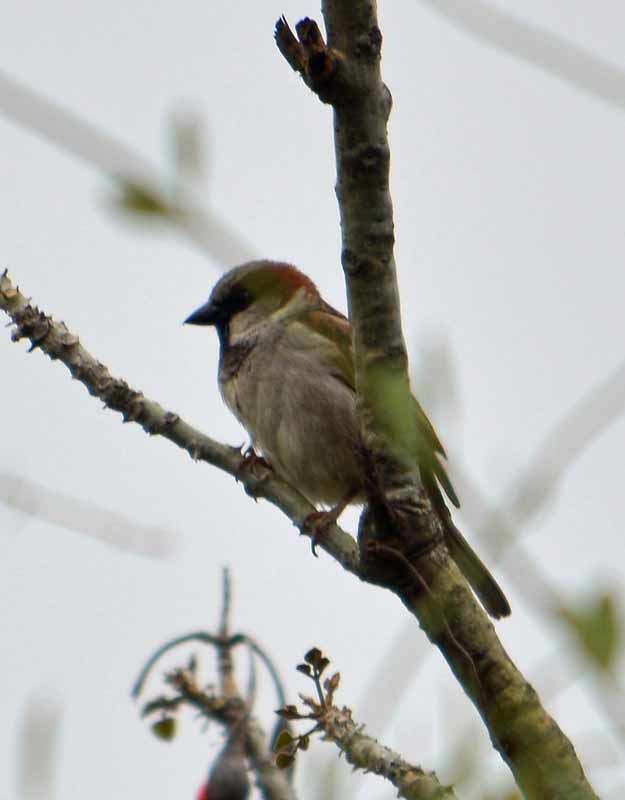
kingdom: Animalia
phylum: Chordata
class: Aves
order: Passeriformes
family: Passeridae
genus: Passer
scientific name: Passer domesticus
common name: House sparrow
